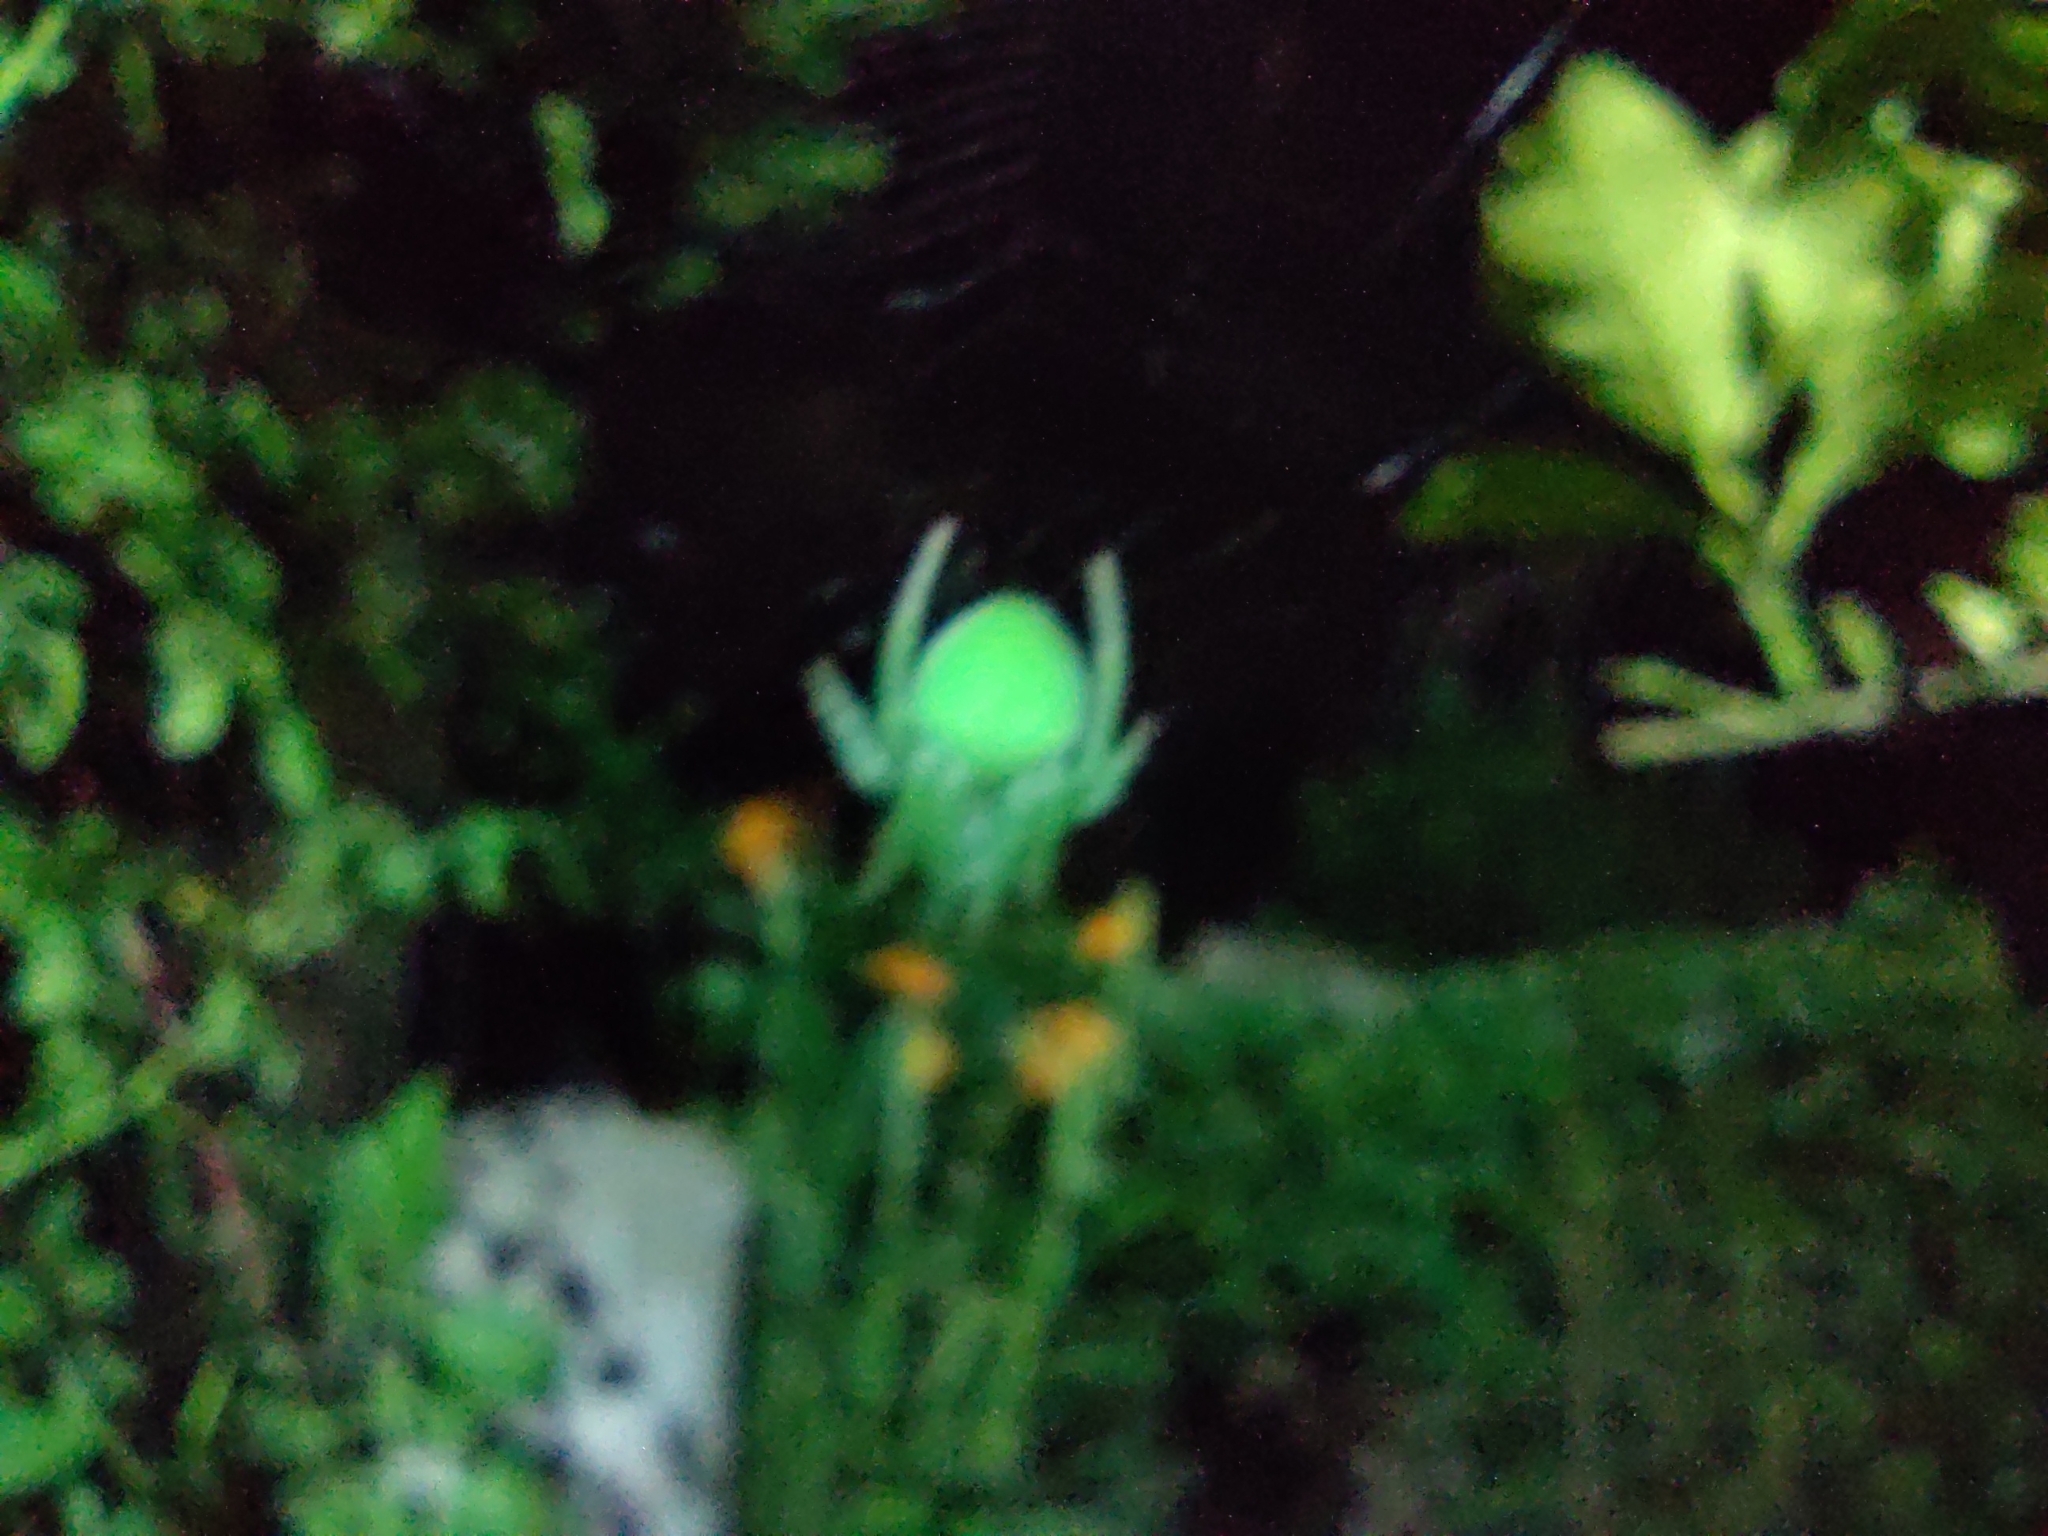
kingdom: Animalia
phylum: Arthropoda
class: Arachnida
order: Araneae
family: Araneidae
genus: Araneus
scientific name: Araneus uniformis
